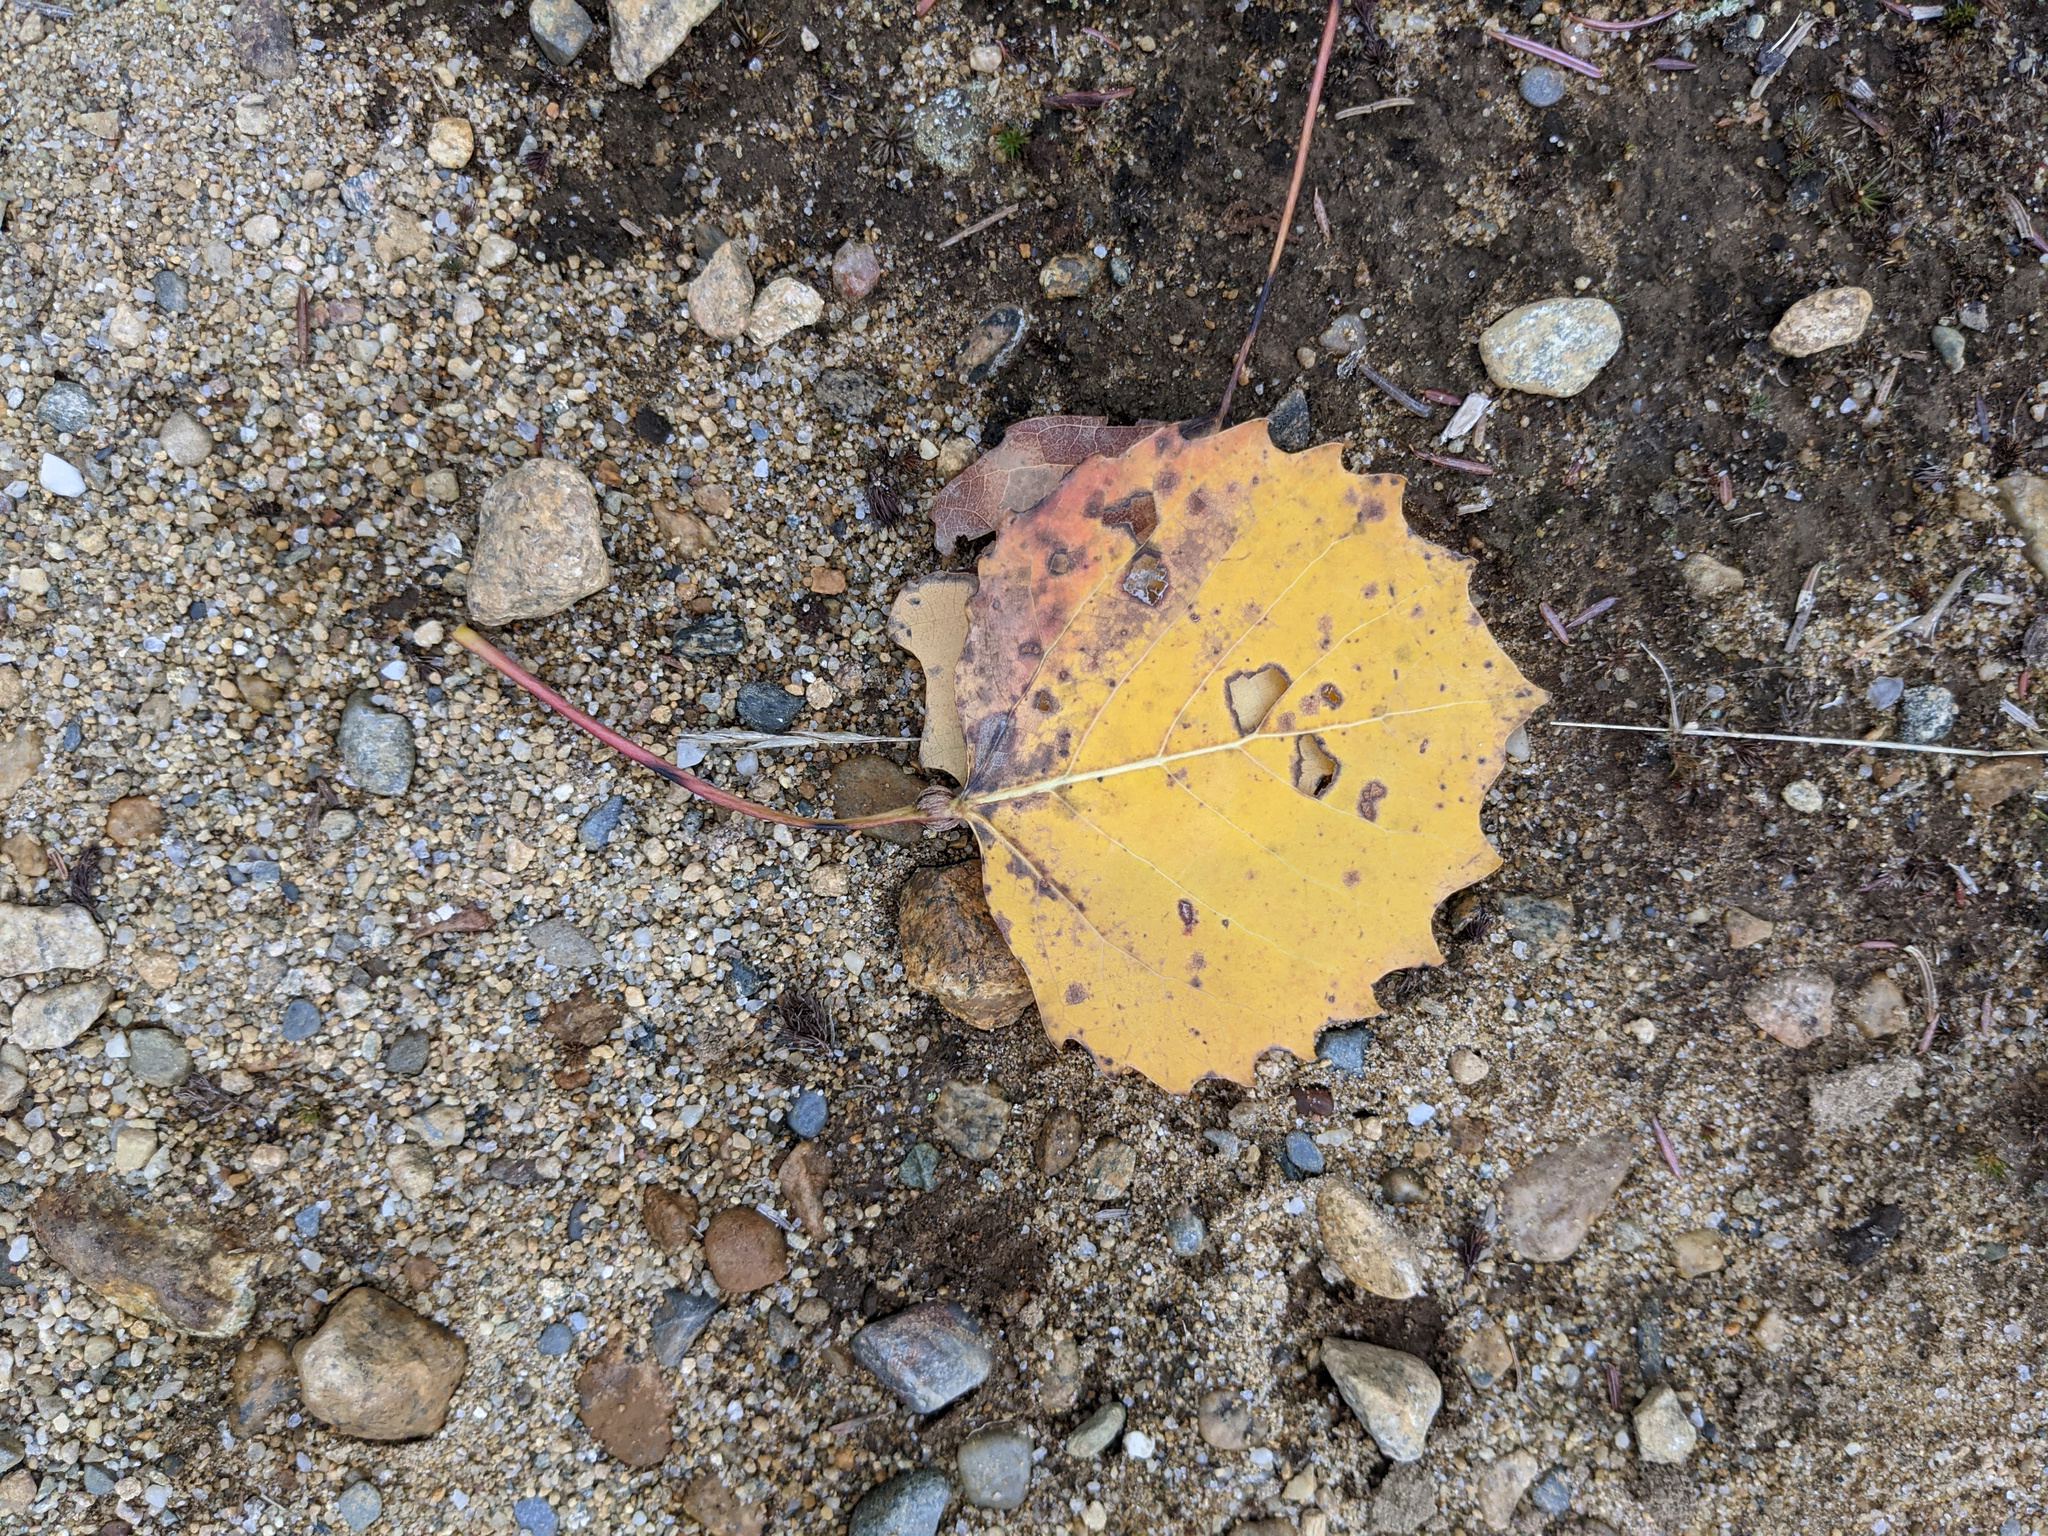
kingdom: Plantae
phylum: Tracheophyta
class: Magnoliopsida
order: Malpighiales
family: Salicaceae
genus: Populus
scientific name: Populus grandidentata
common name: Bigtooth aspen
